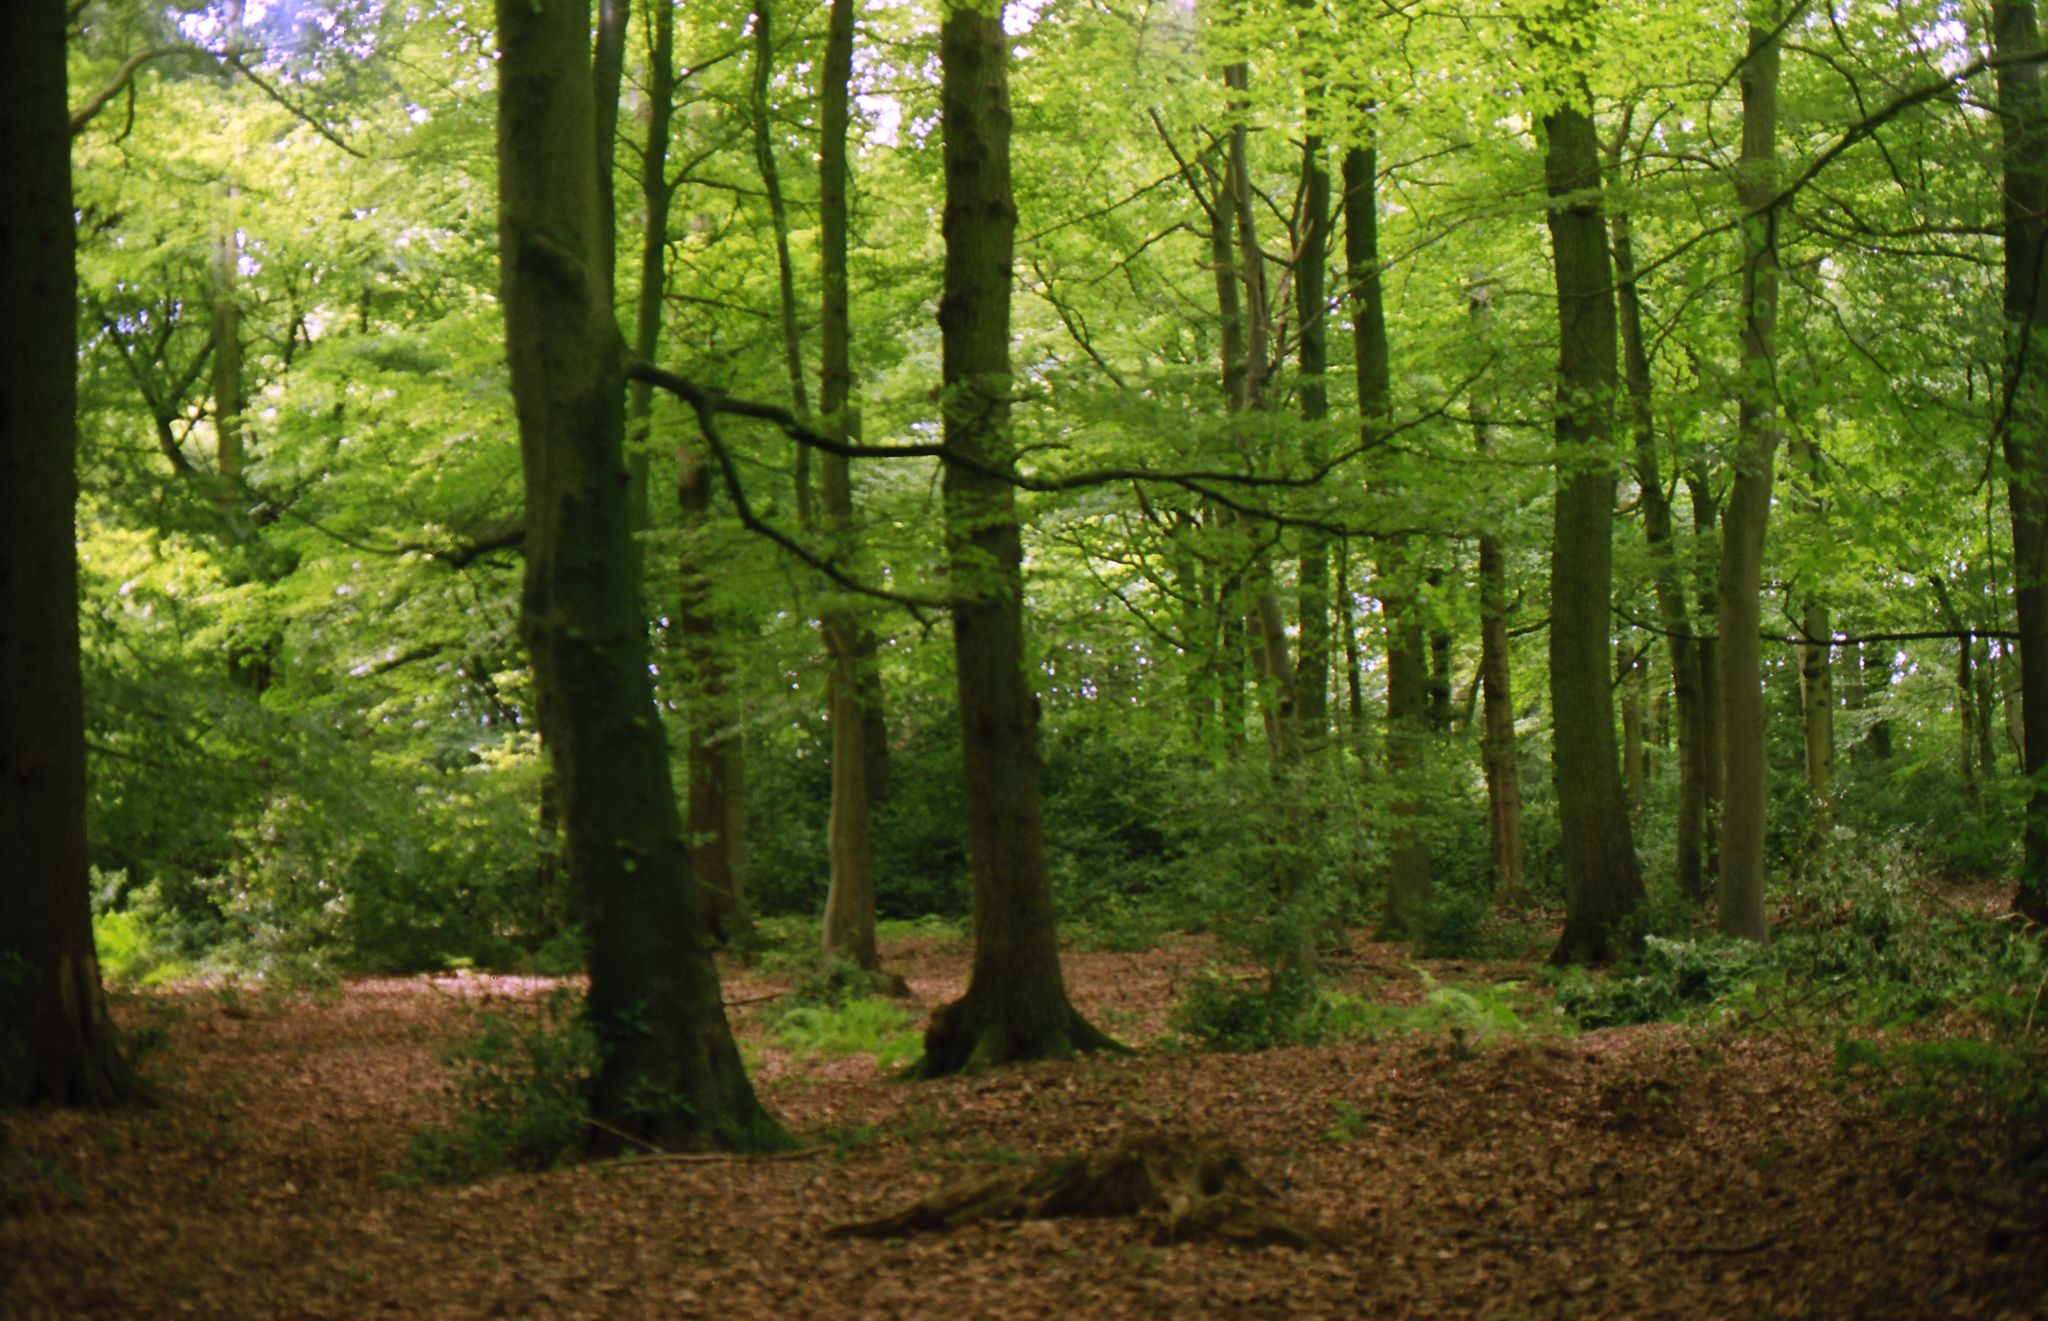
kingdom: Plantae
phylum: Tracheophyta
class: Magnoliopsida
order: Fagales
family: Fagaceae
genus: Fagus
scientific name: Fagus sylvatica
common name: Beech
